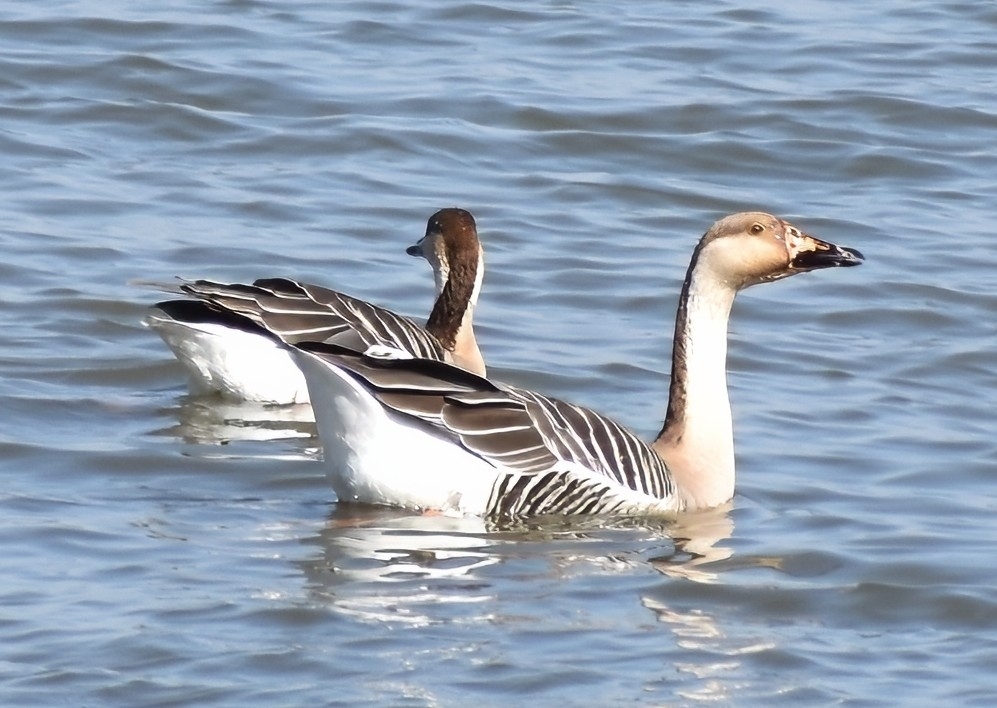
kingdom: Animalia
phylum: Chordata
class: Aves
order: Anseriformes
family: Anatidae
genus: Anser
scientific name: Anser cygnoides
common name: Swan goose
